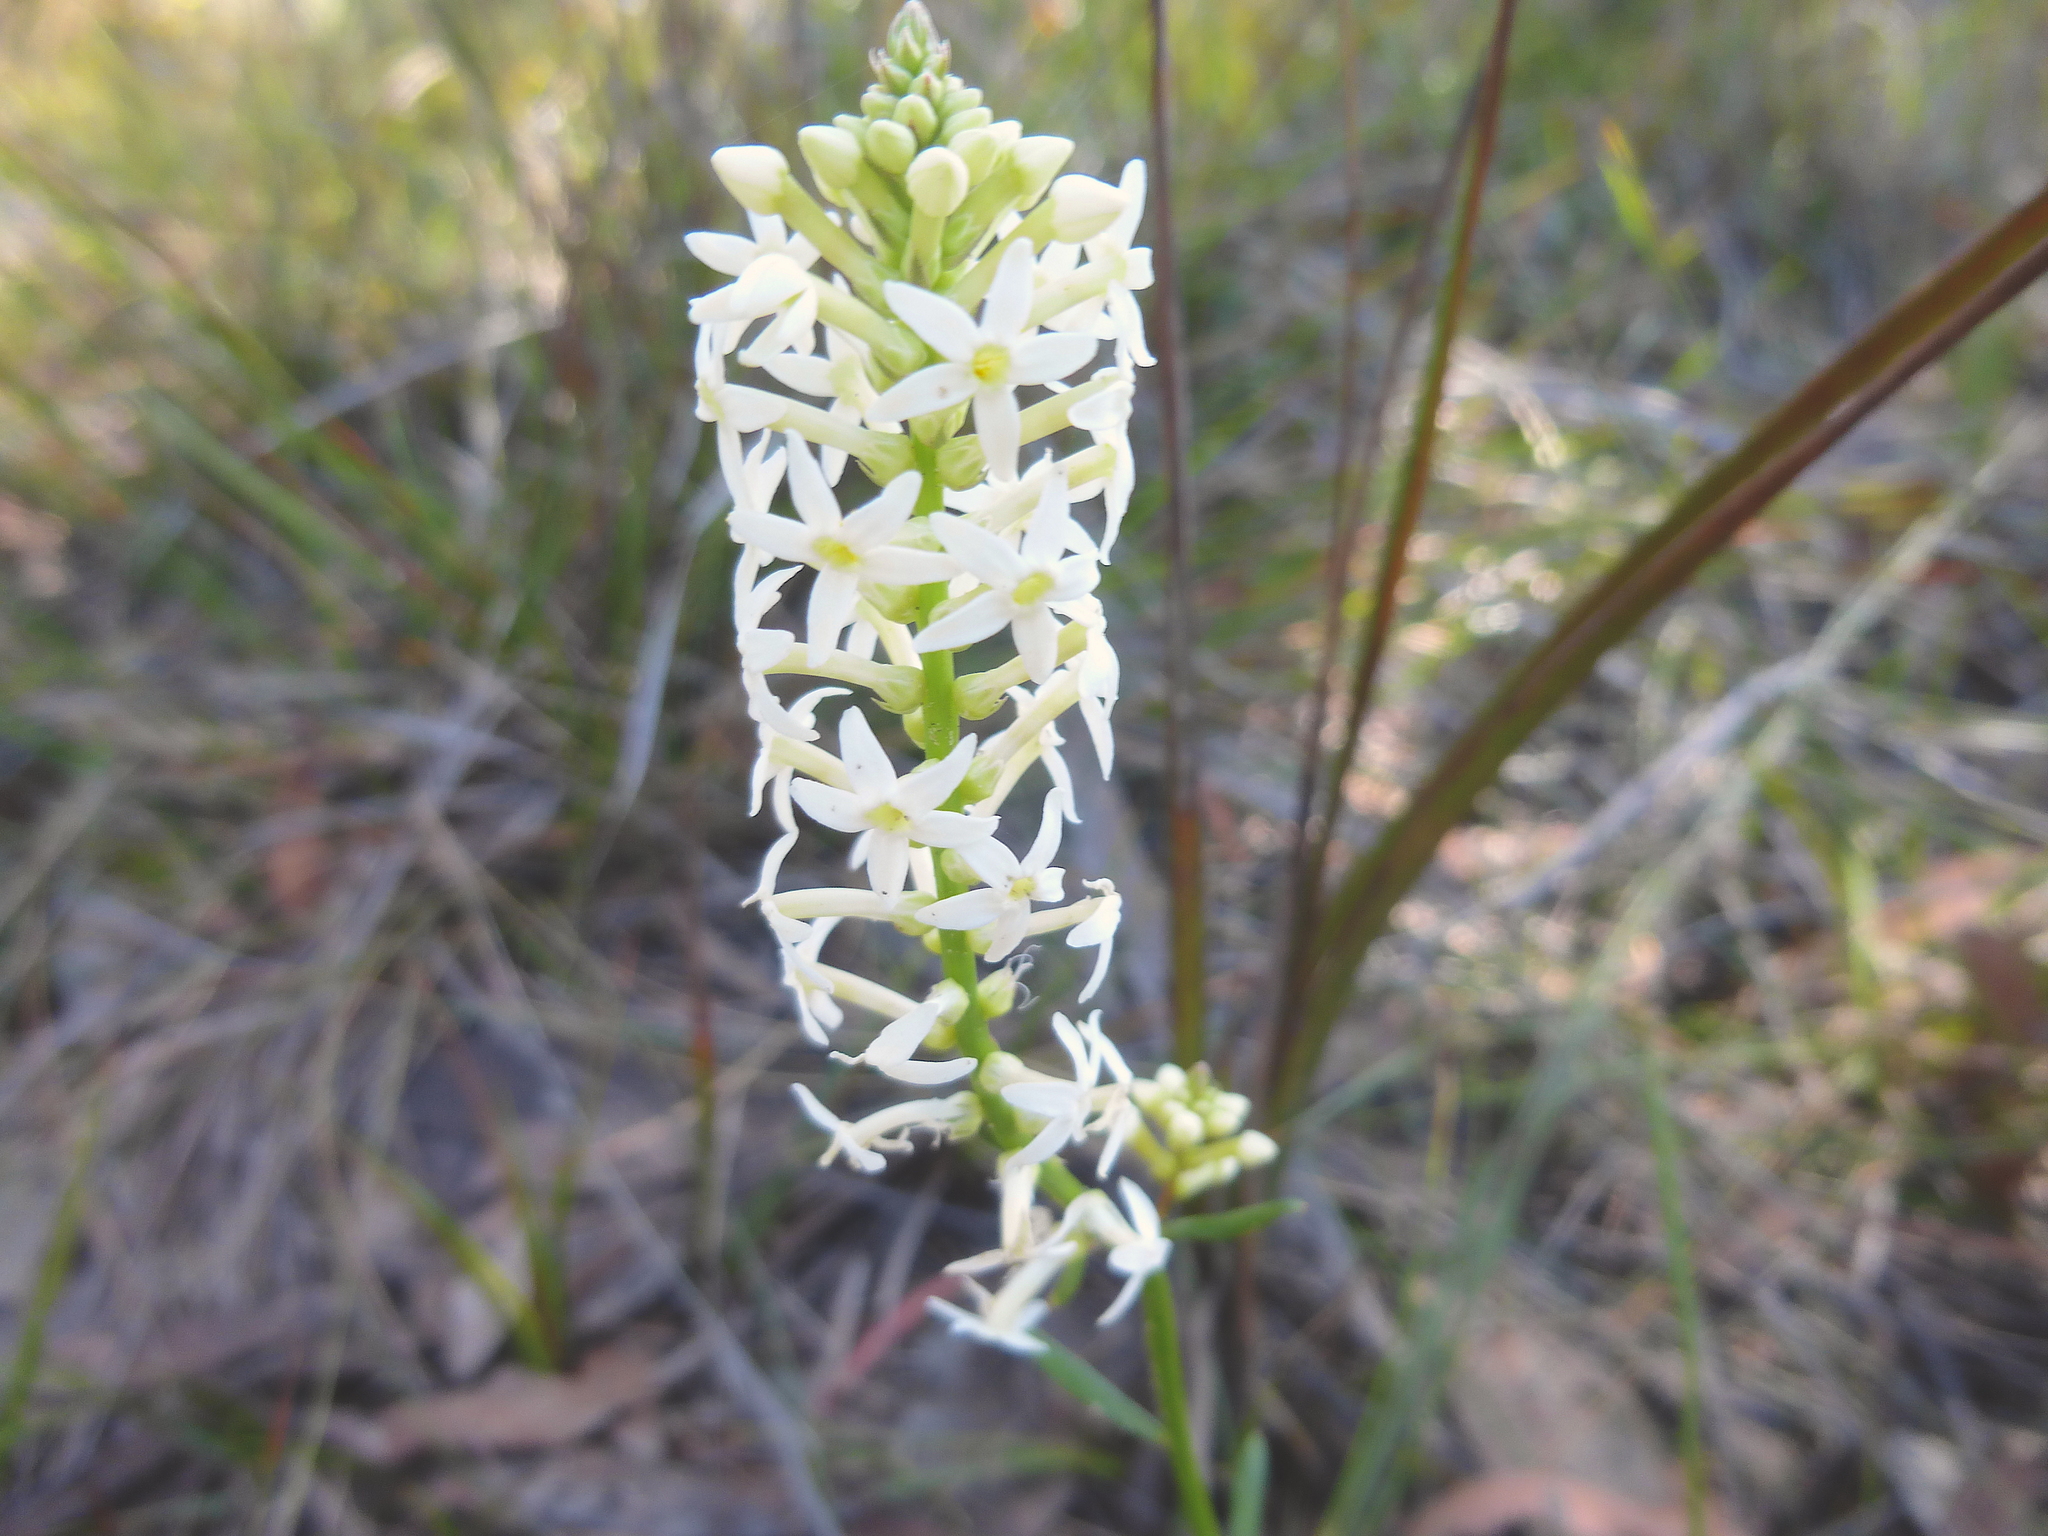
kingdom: Plantae
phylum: Tracheophyta
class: Magnoliopsida
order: Celastrales
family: Celastraceae
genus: Stackhousia
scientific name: Stackhousia monogyna
